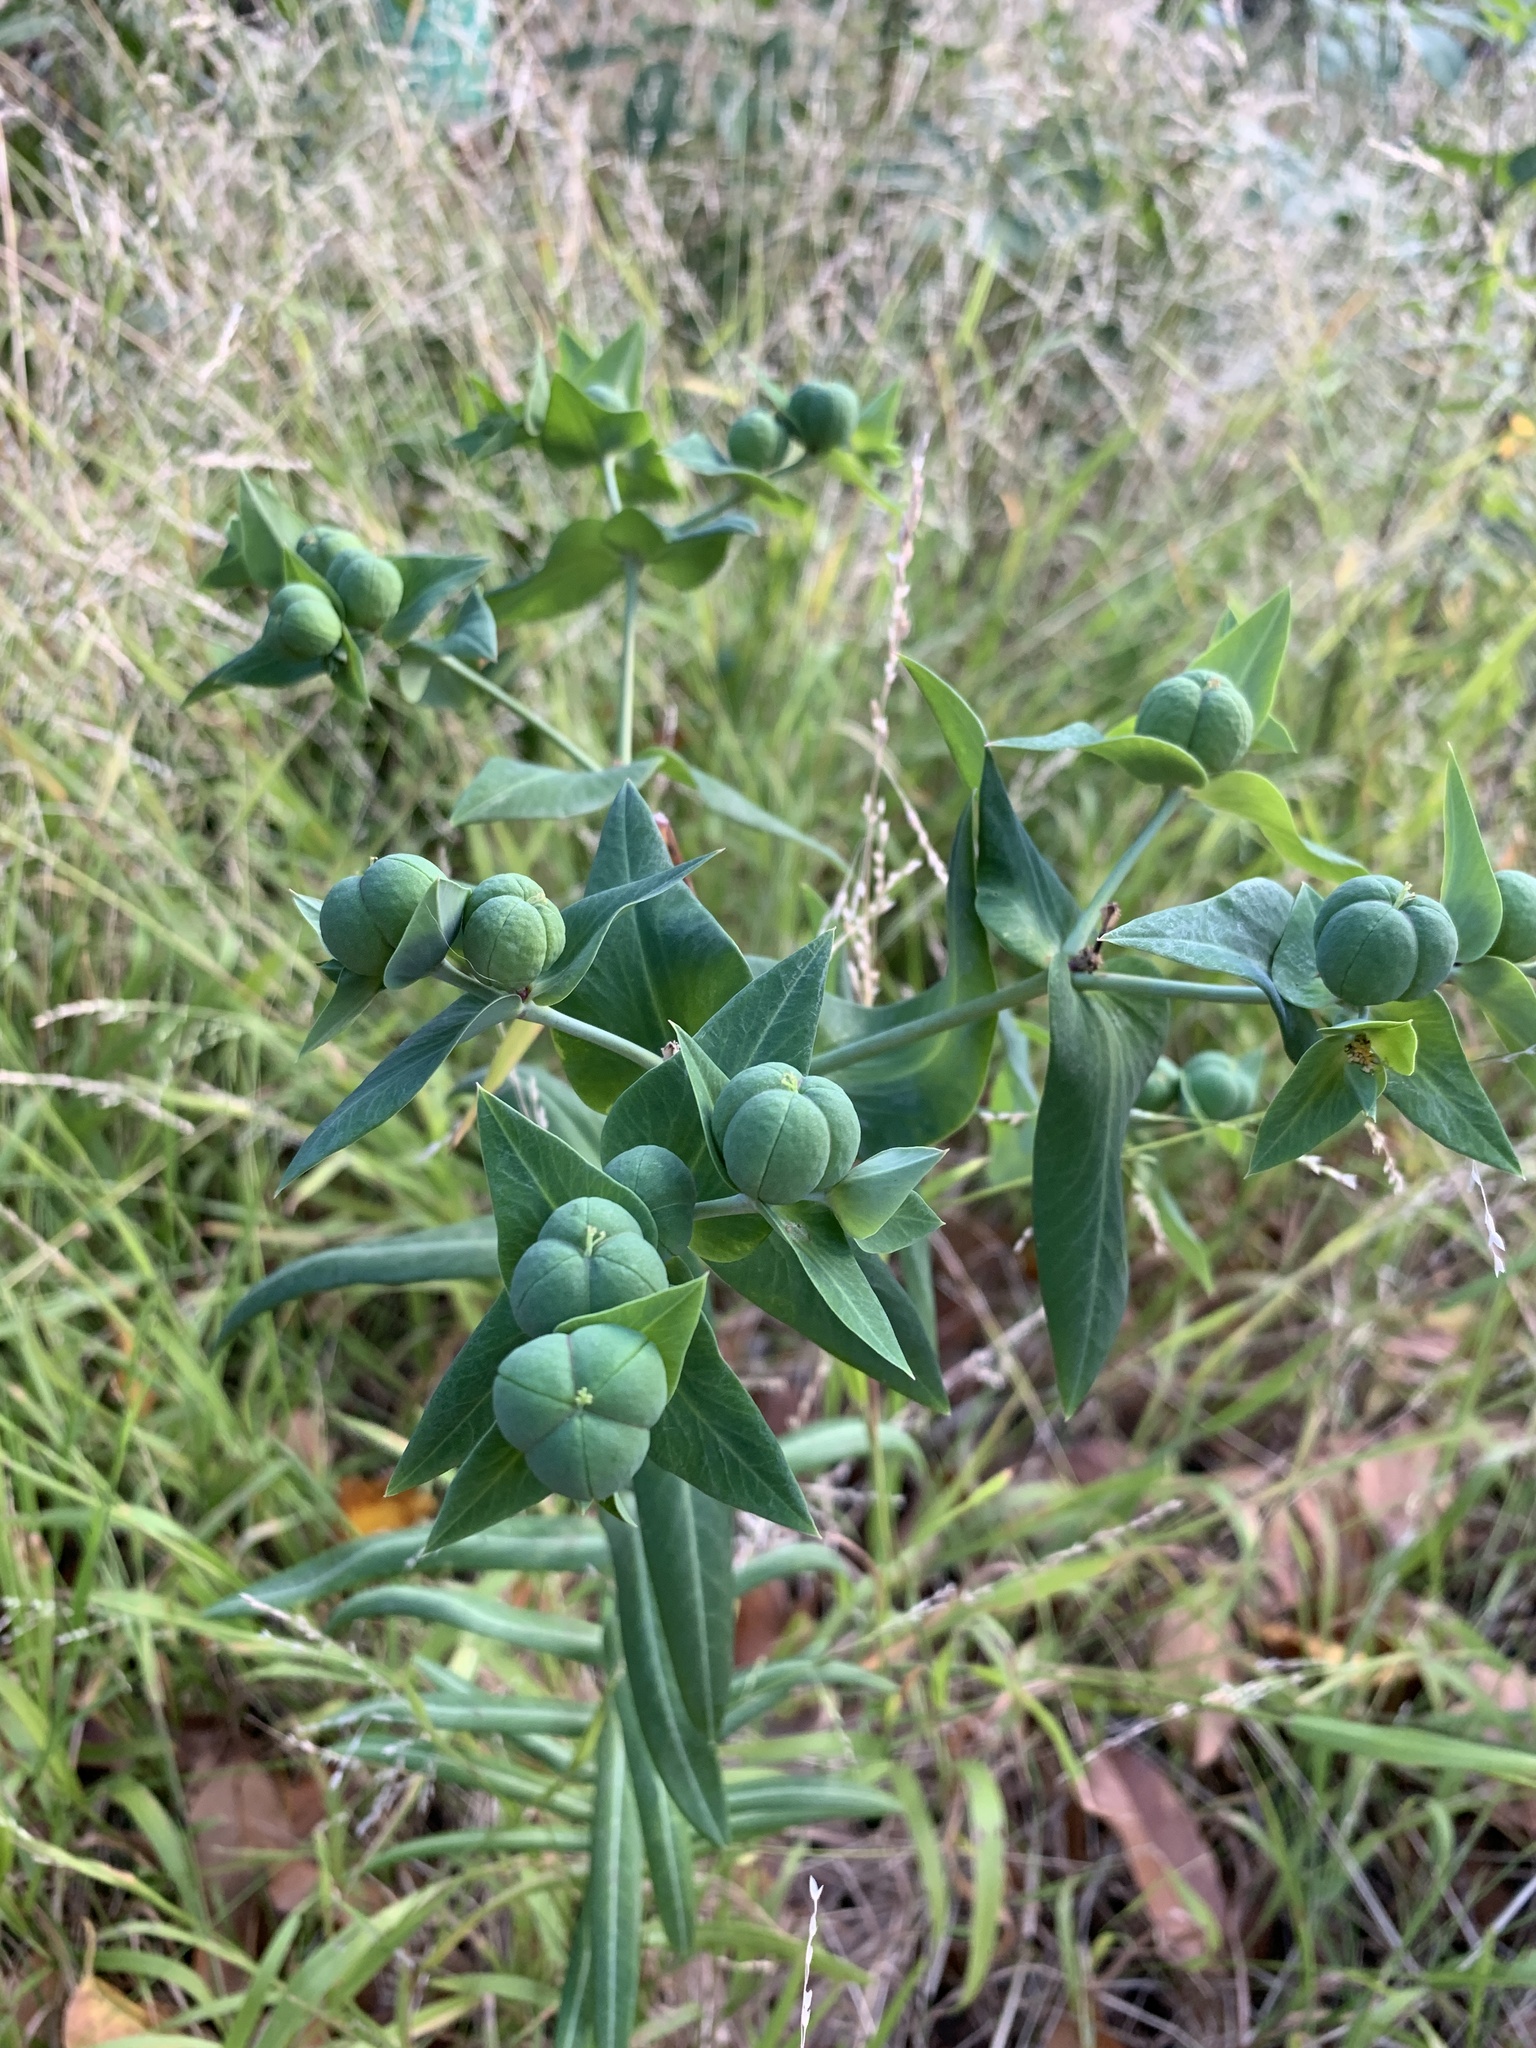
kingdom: Plantae
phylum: Tracheophyta
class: Magnoliopsida
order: Malpighiales
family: Euphorbiaceae
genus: Euphorbia
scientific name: Euphorbia lathyris
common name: Caper spurge
